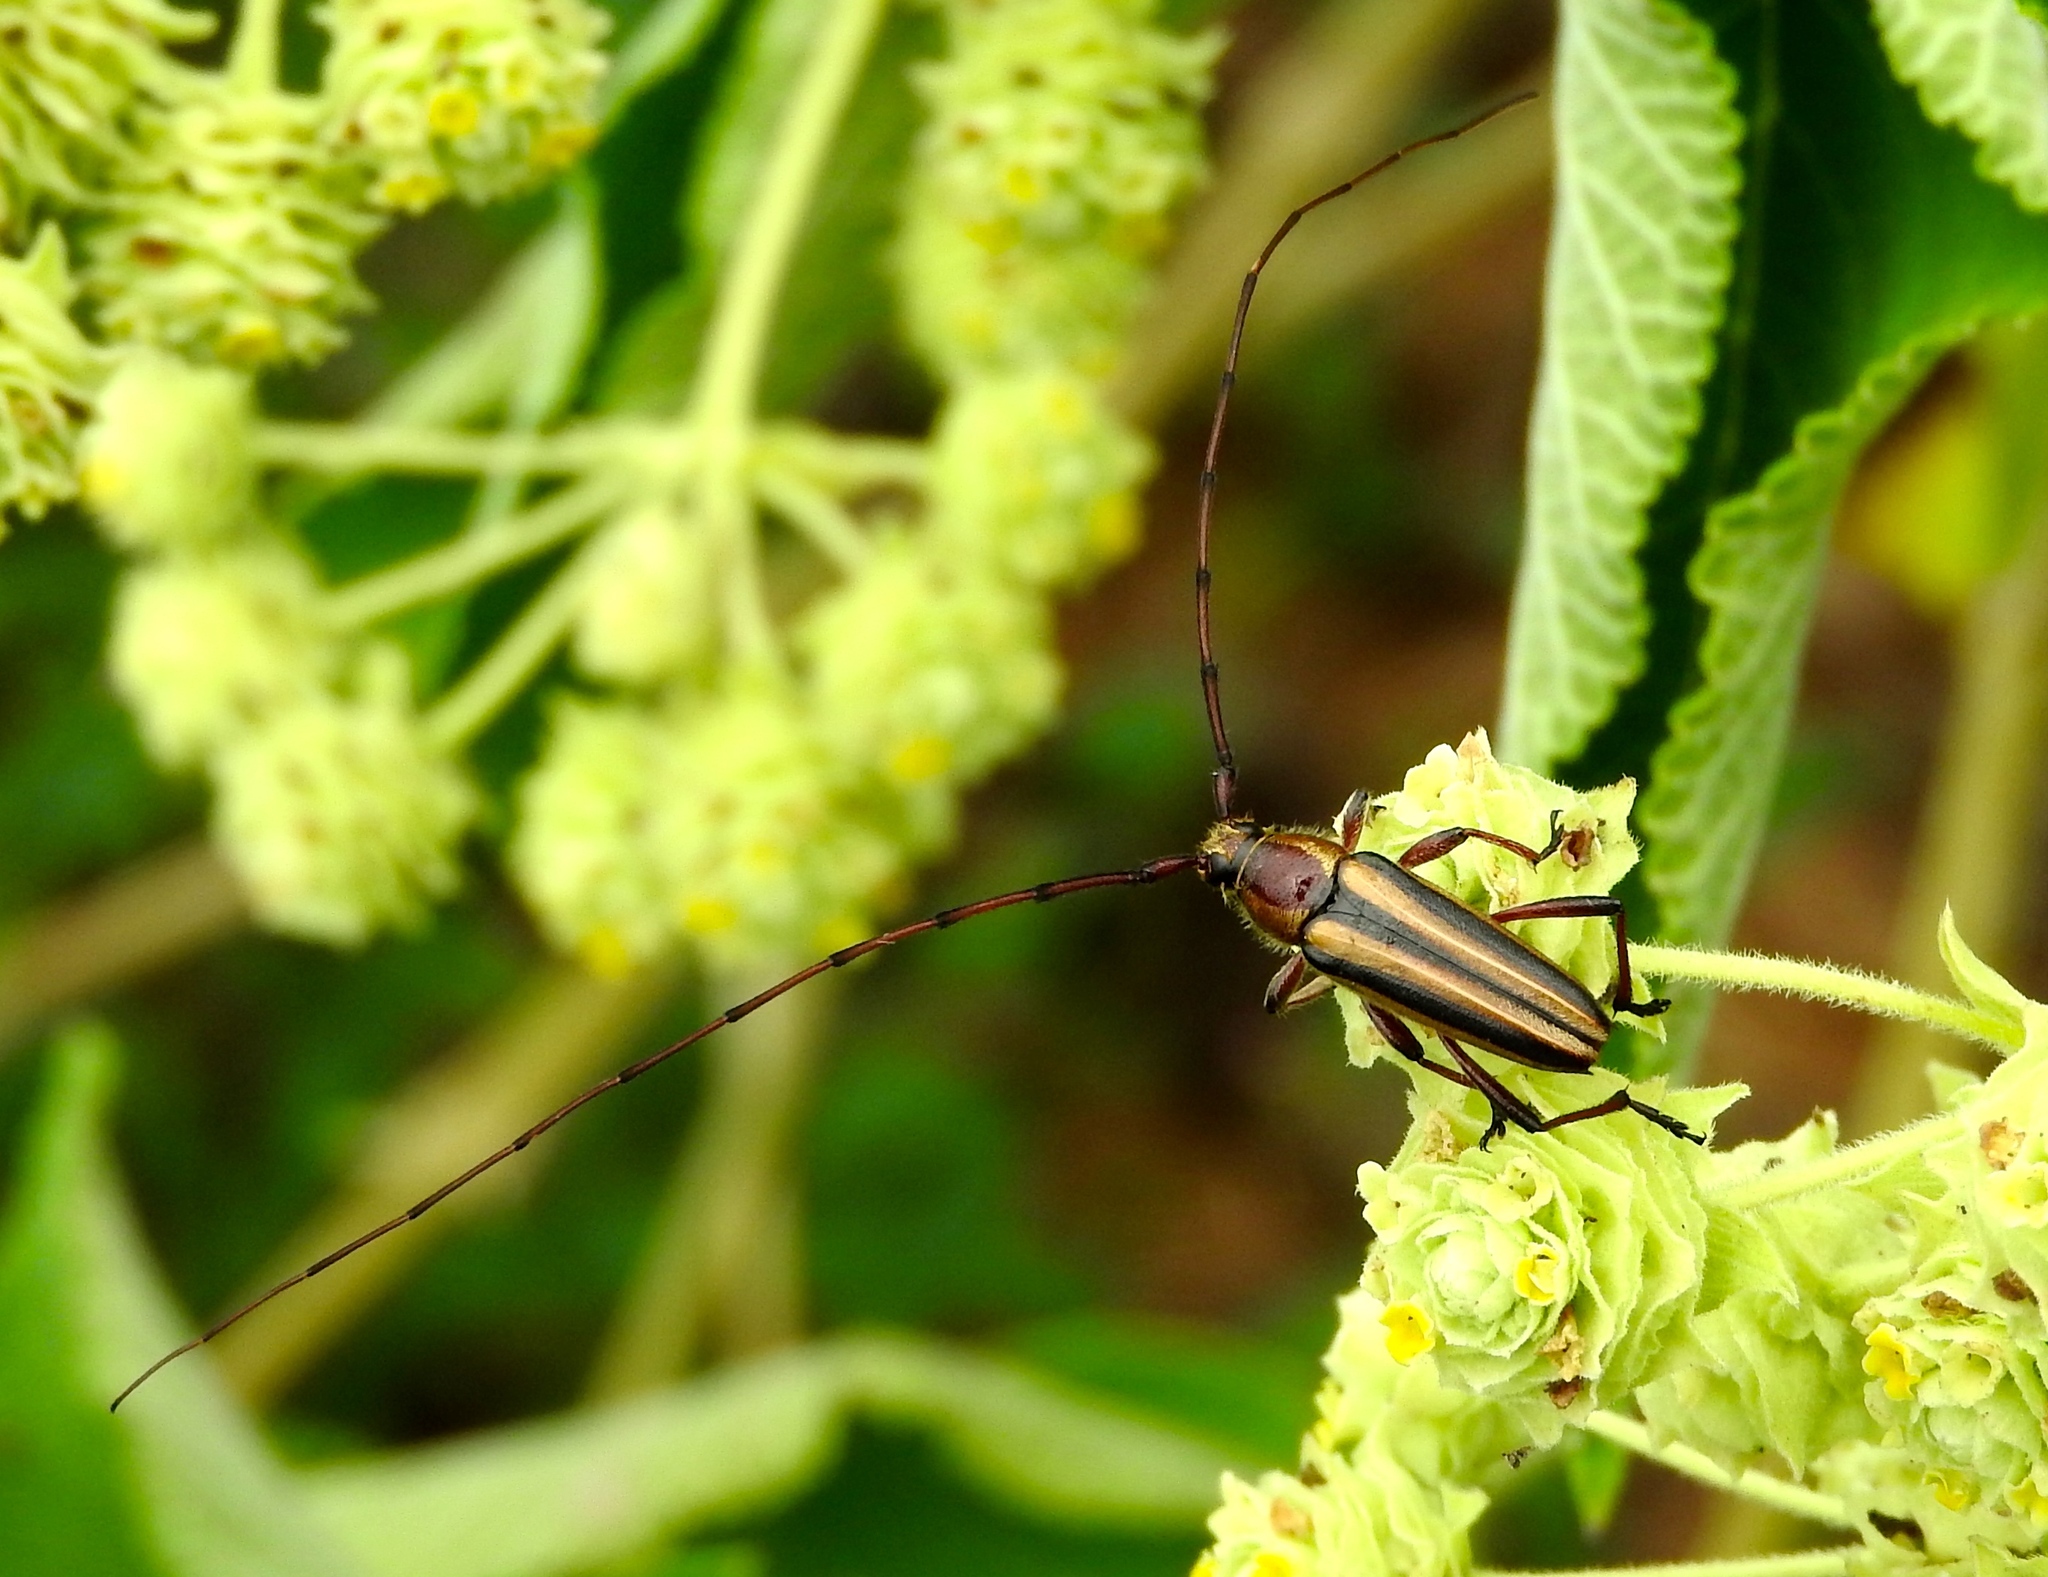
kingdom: Animalia
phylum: Arthropoda
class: Insecta
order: Coleoptera
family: Cerambycidae
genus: Sphaenothecus
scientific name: Sphaenothecus maccartyi
